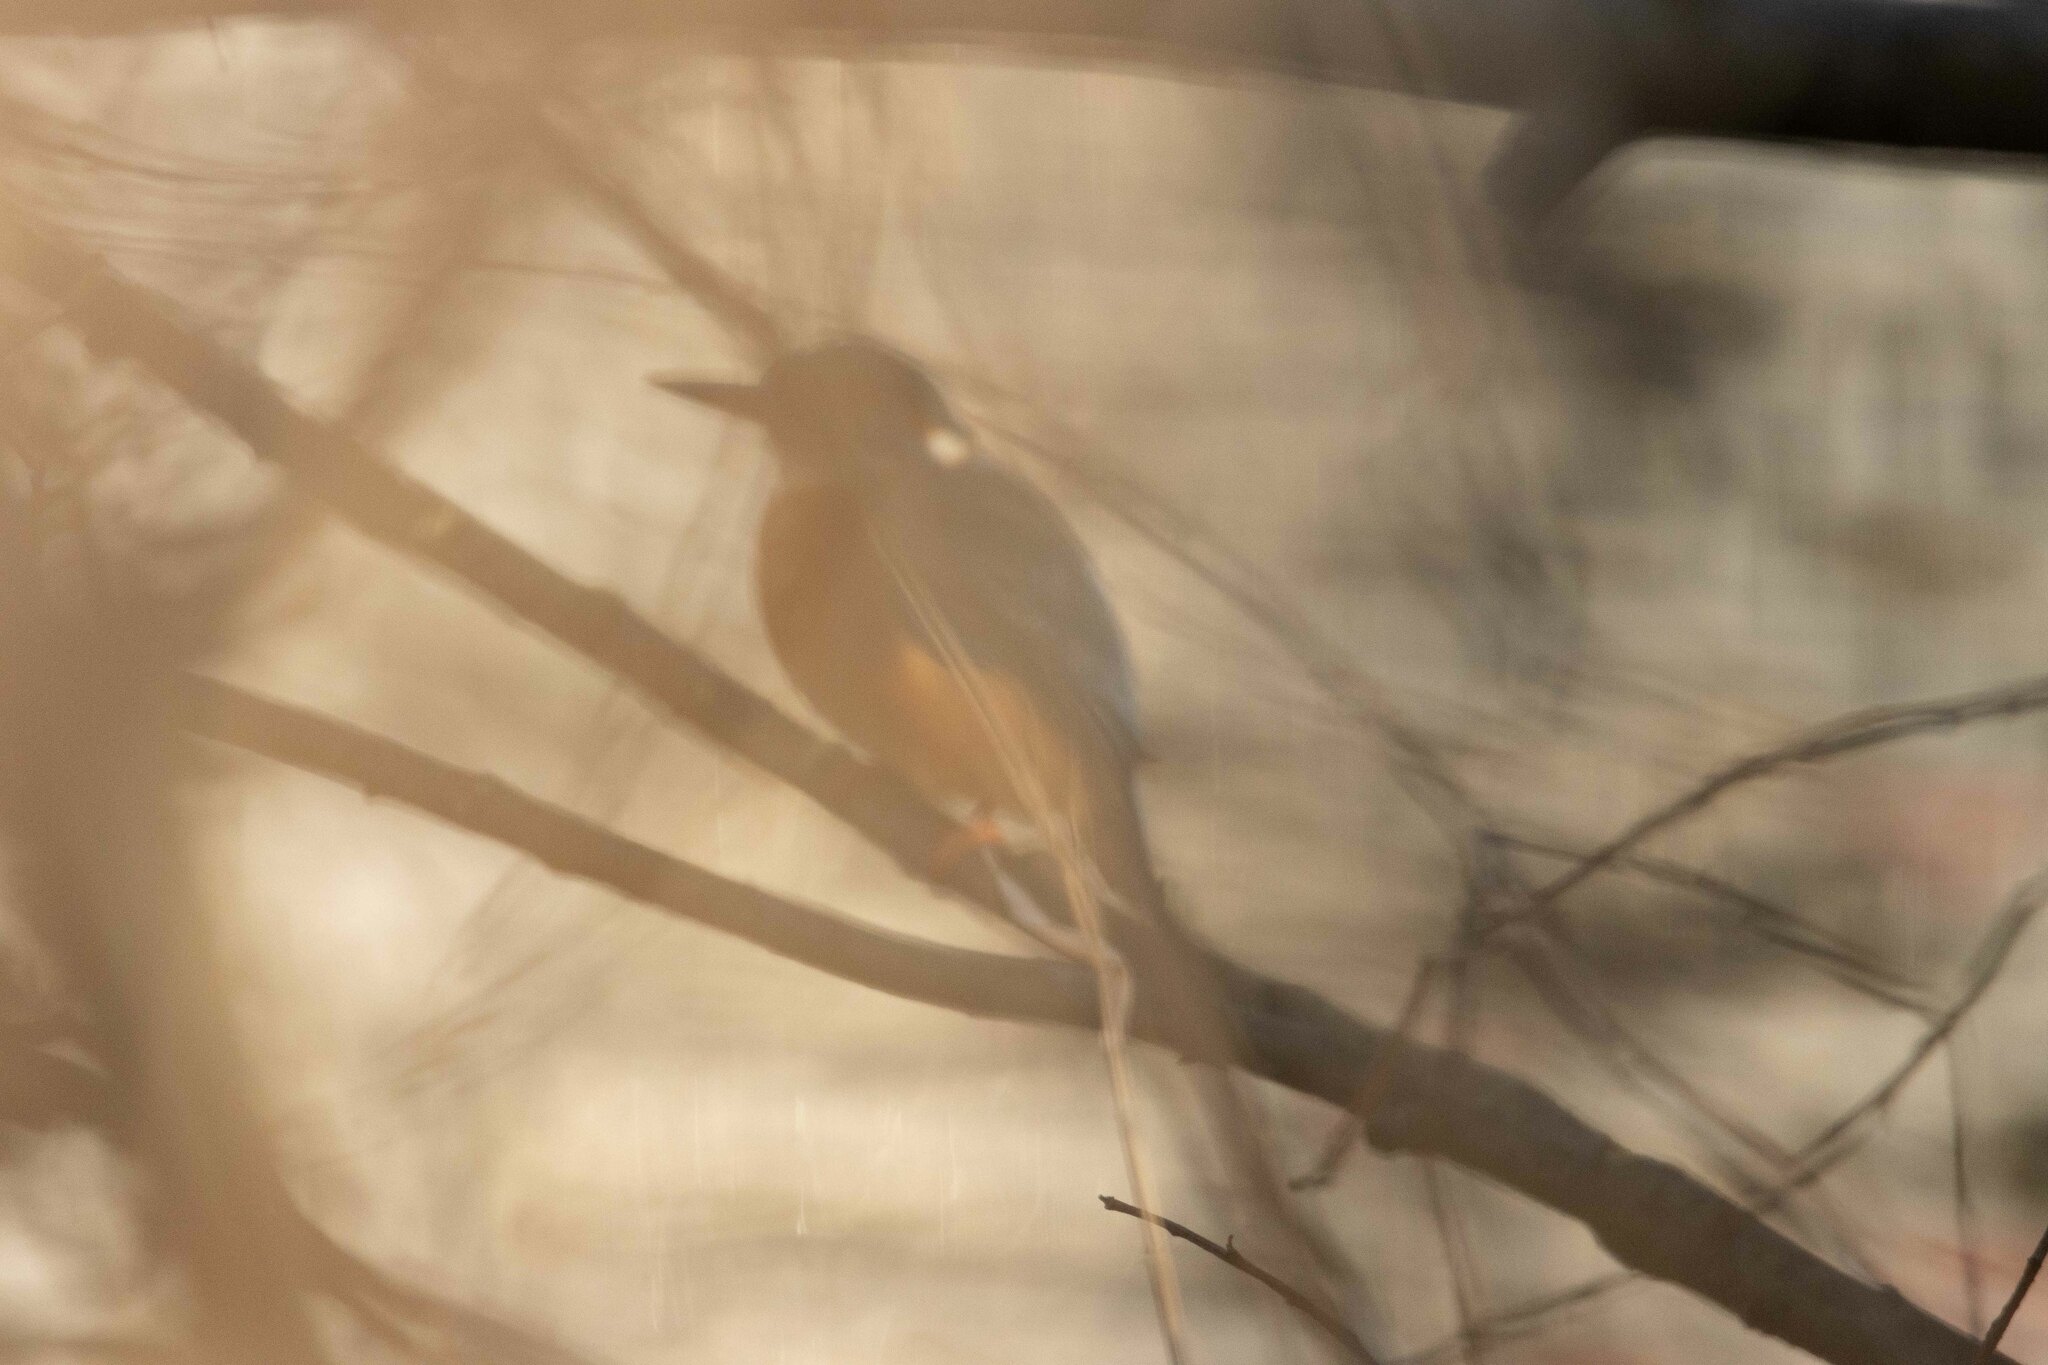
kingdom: Animalia
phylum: Chordata
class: Aves
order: Coraciiformes
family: Alcedinidae
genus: Alcedo
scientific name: Alcedo atthis
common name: Common kingfisher
